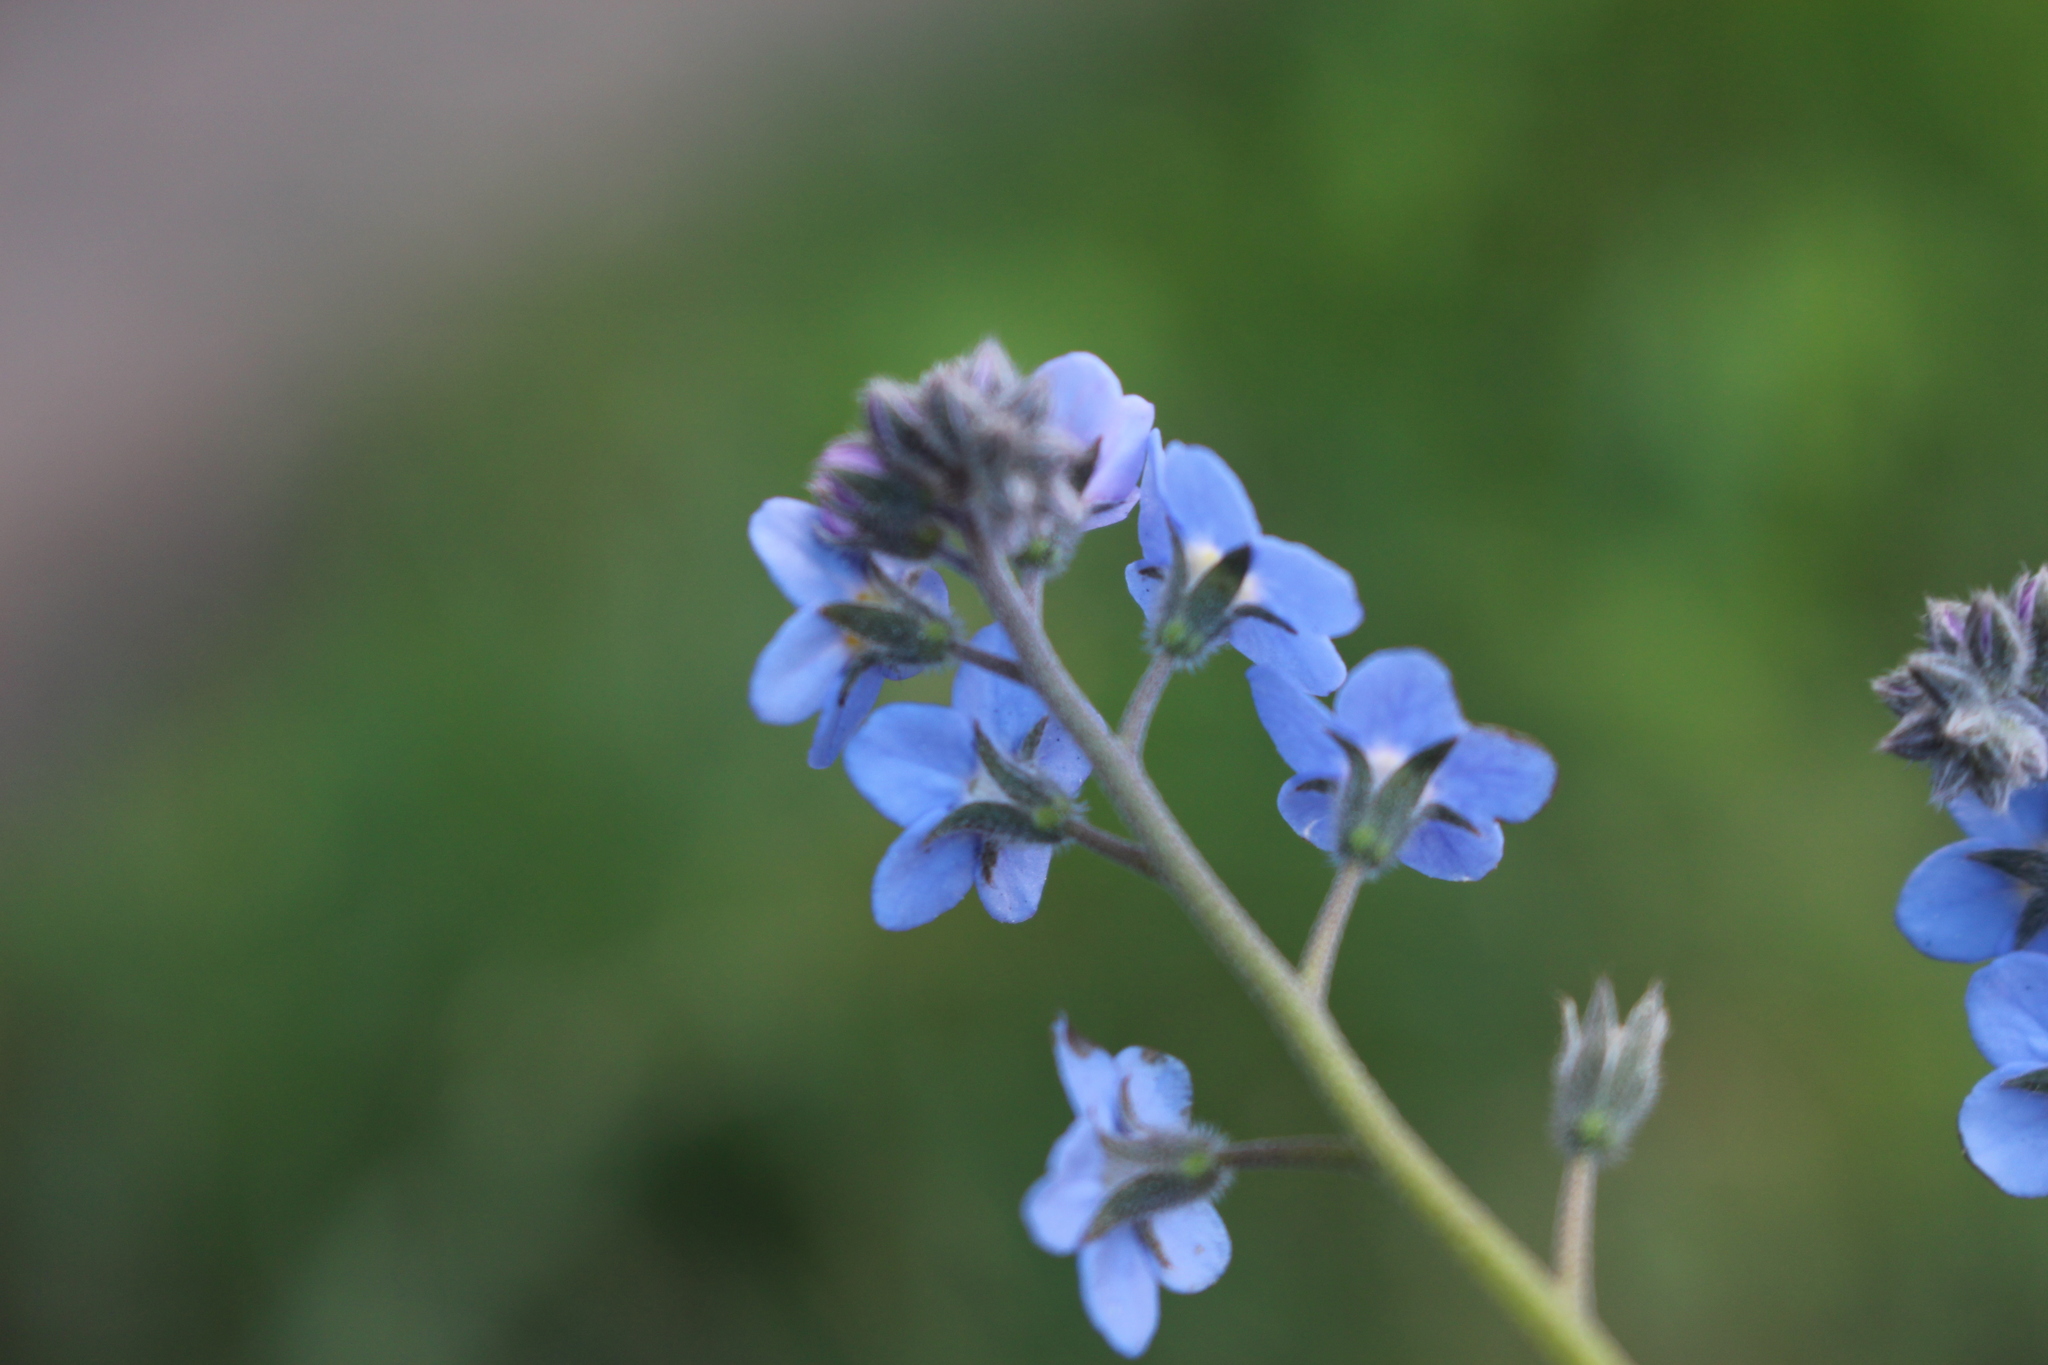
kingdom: Plantae
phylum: Tracheophyta
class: Magnoliopsida
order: Boraginales
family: Boraginaceae
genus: Myosotis
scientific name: Myosotis sylvatica
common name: Wood forget-me-not
